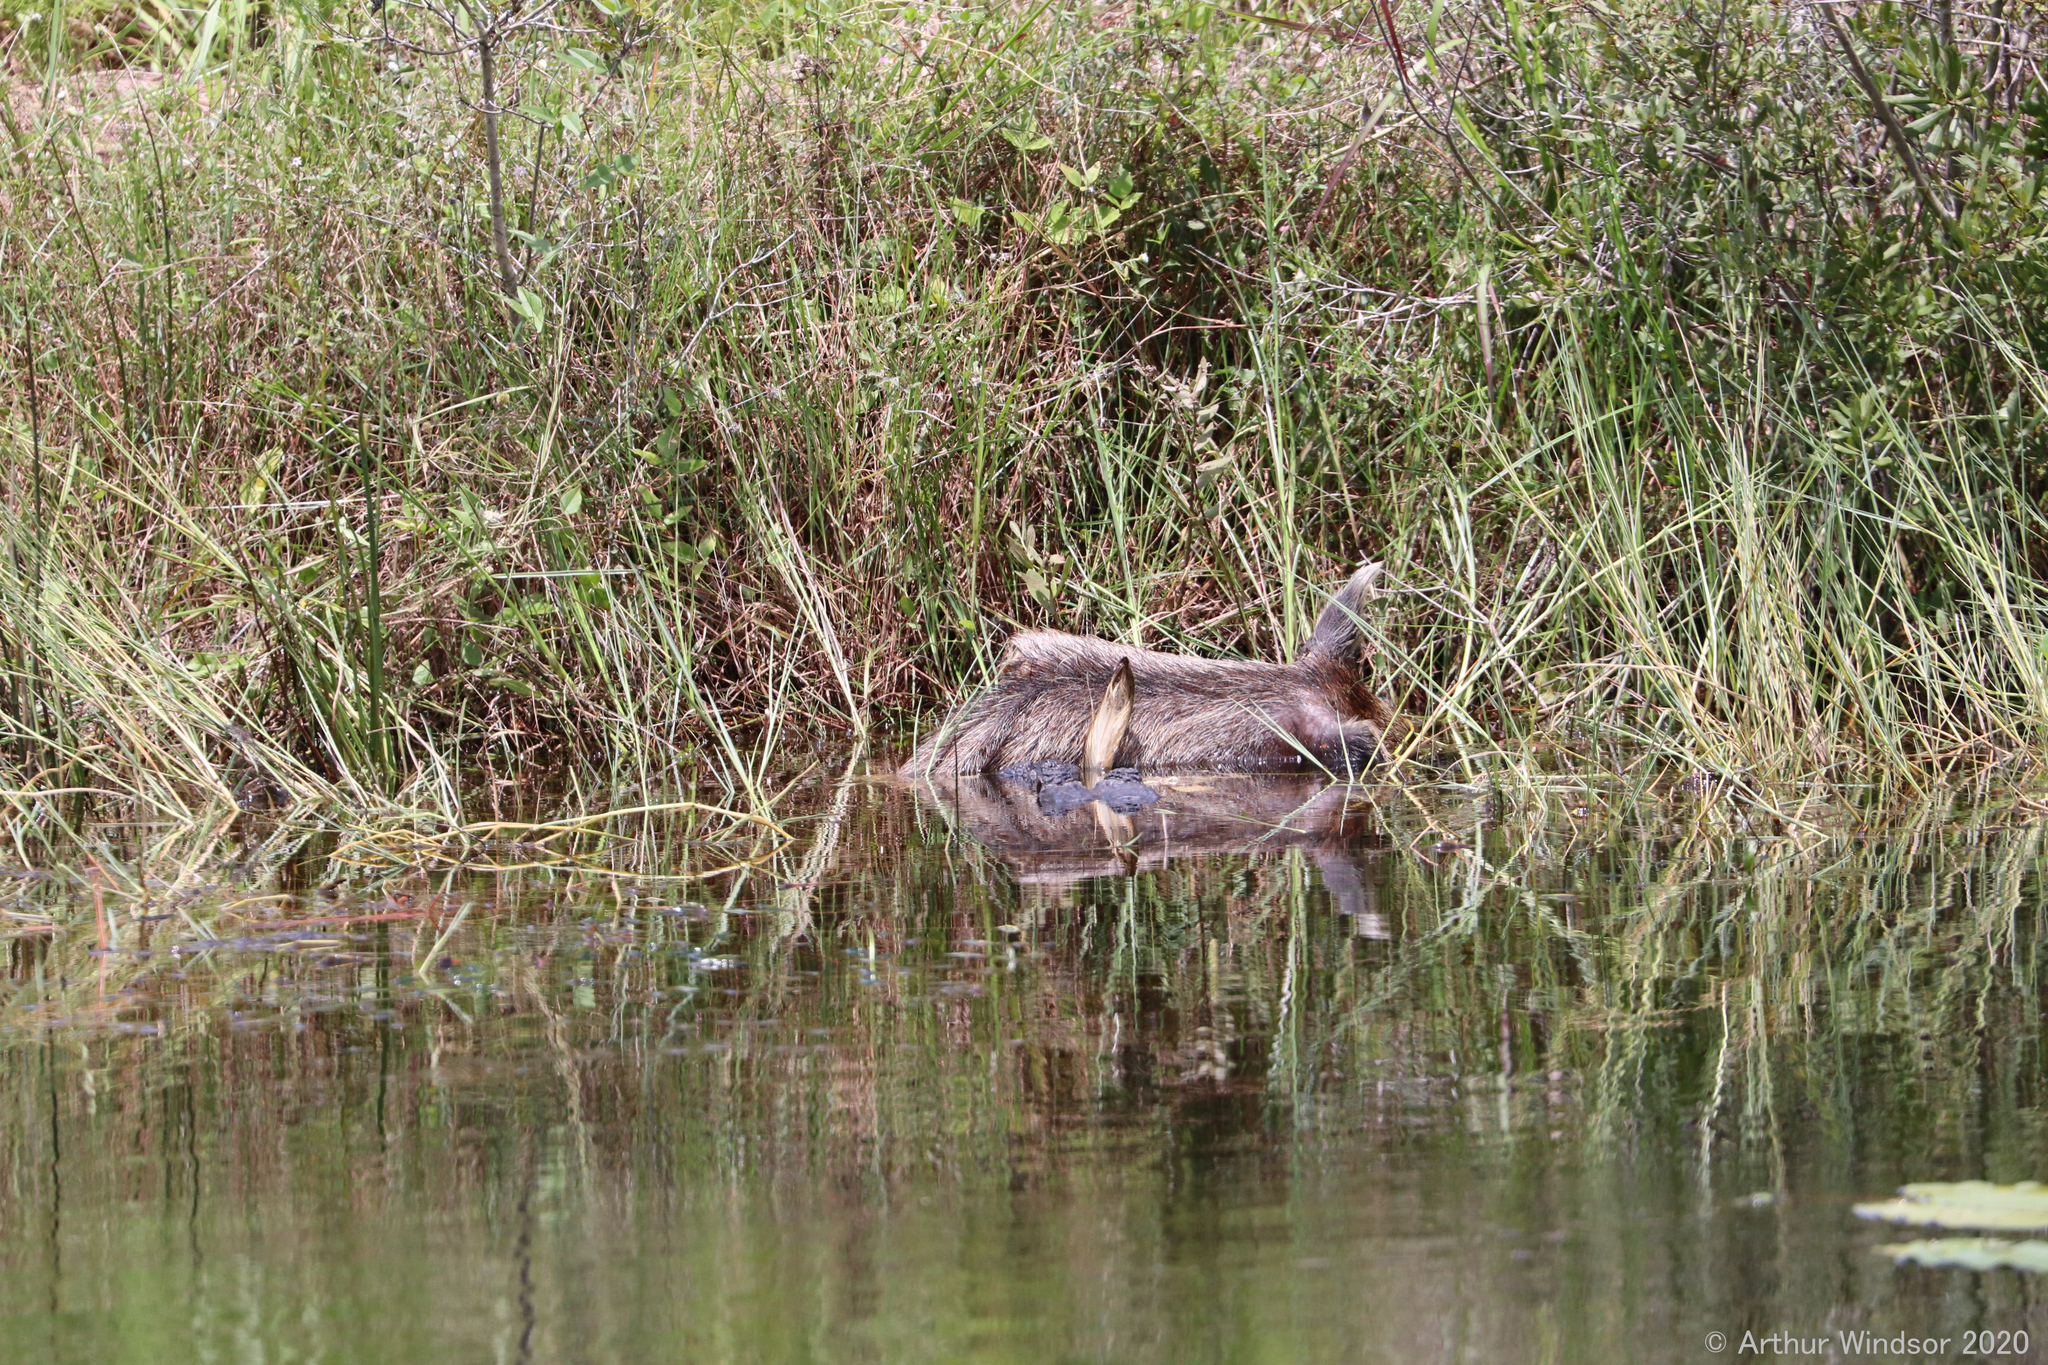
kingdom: Animalia
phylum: Chordata
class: Crocodylia
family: Alligatoridae
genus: Alligator
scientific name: Alligator mississippiensis
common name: American alligator
